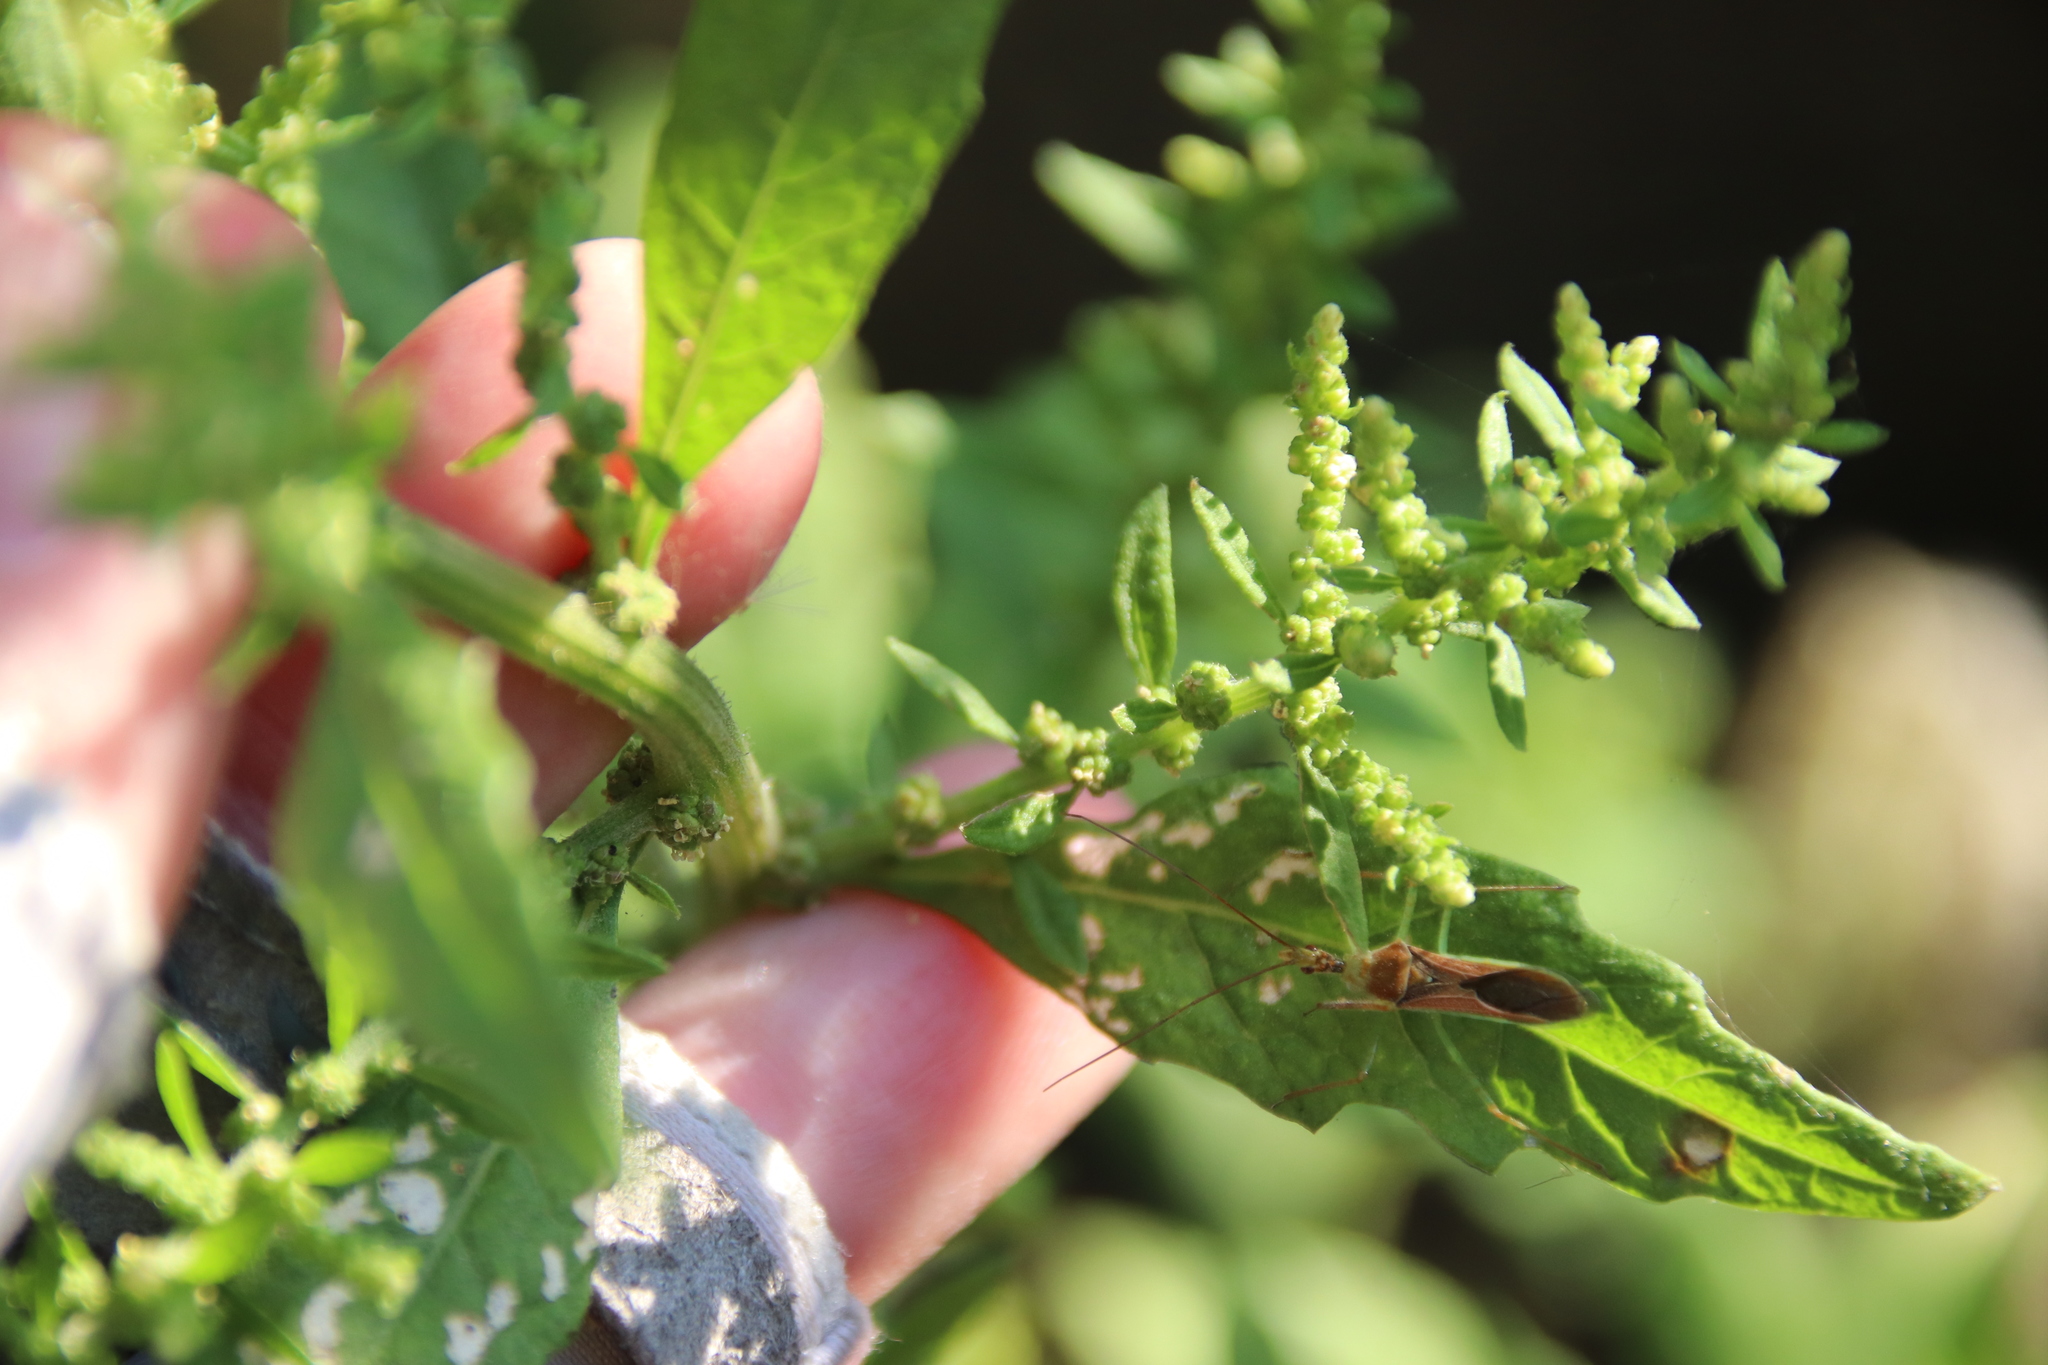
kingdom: Plantae
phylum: Tracheophyta
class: Magnoliopsida
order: Caryophyllales
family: Amaranthaceae
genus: Dysphania
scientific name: Dysphania ambrosioides
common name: Wormseed
